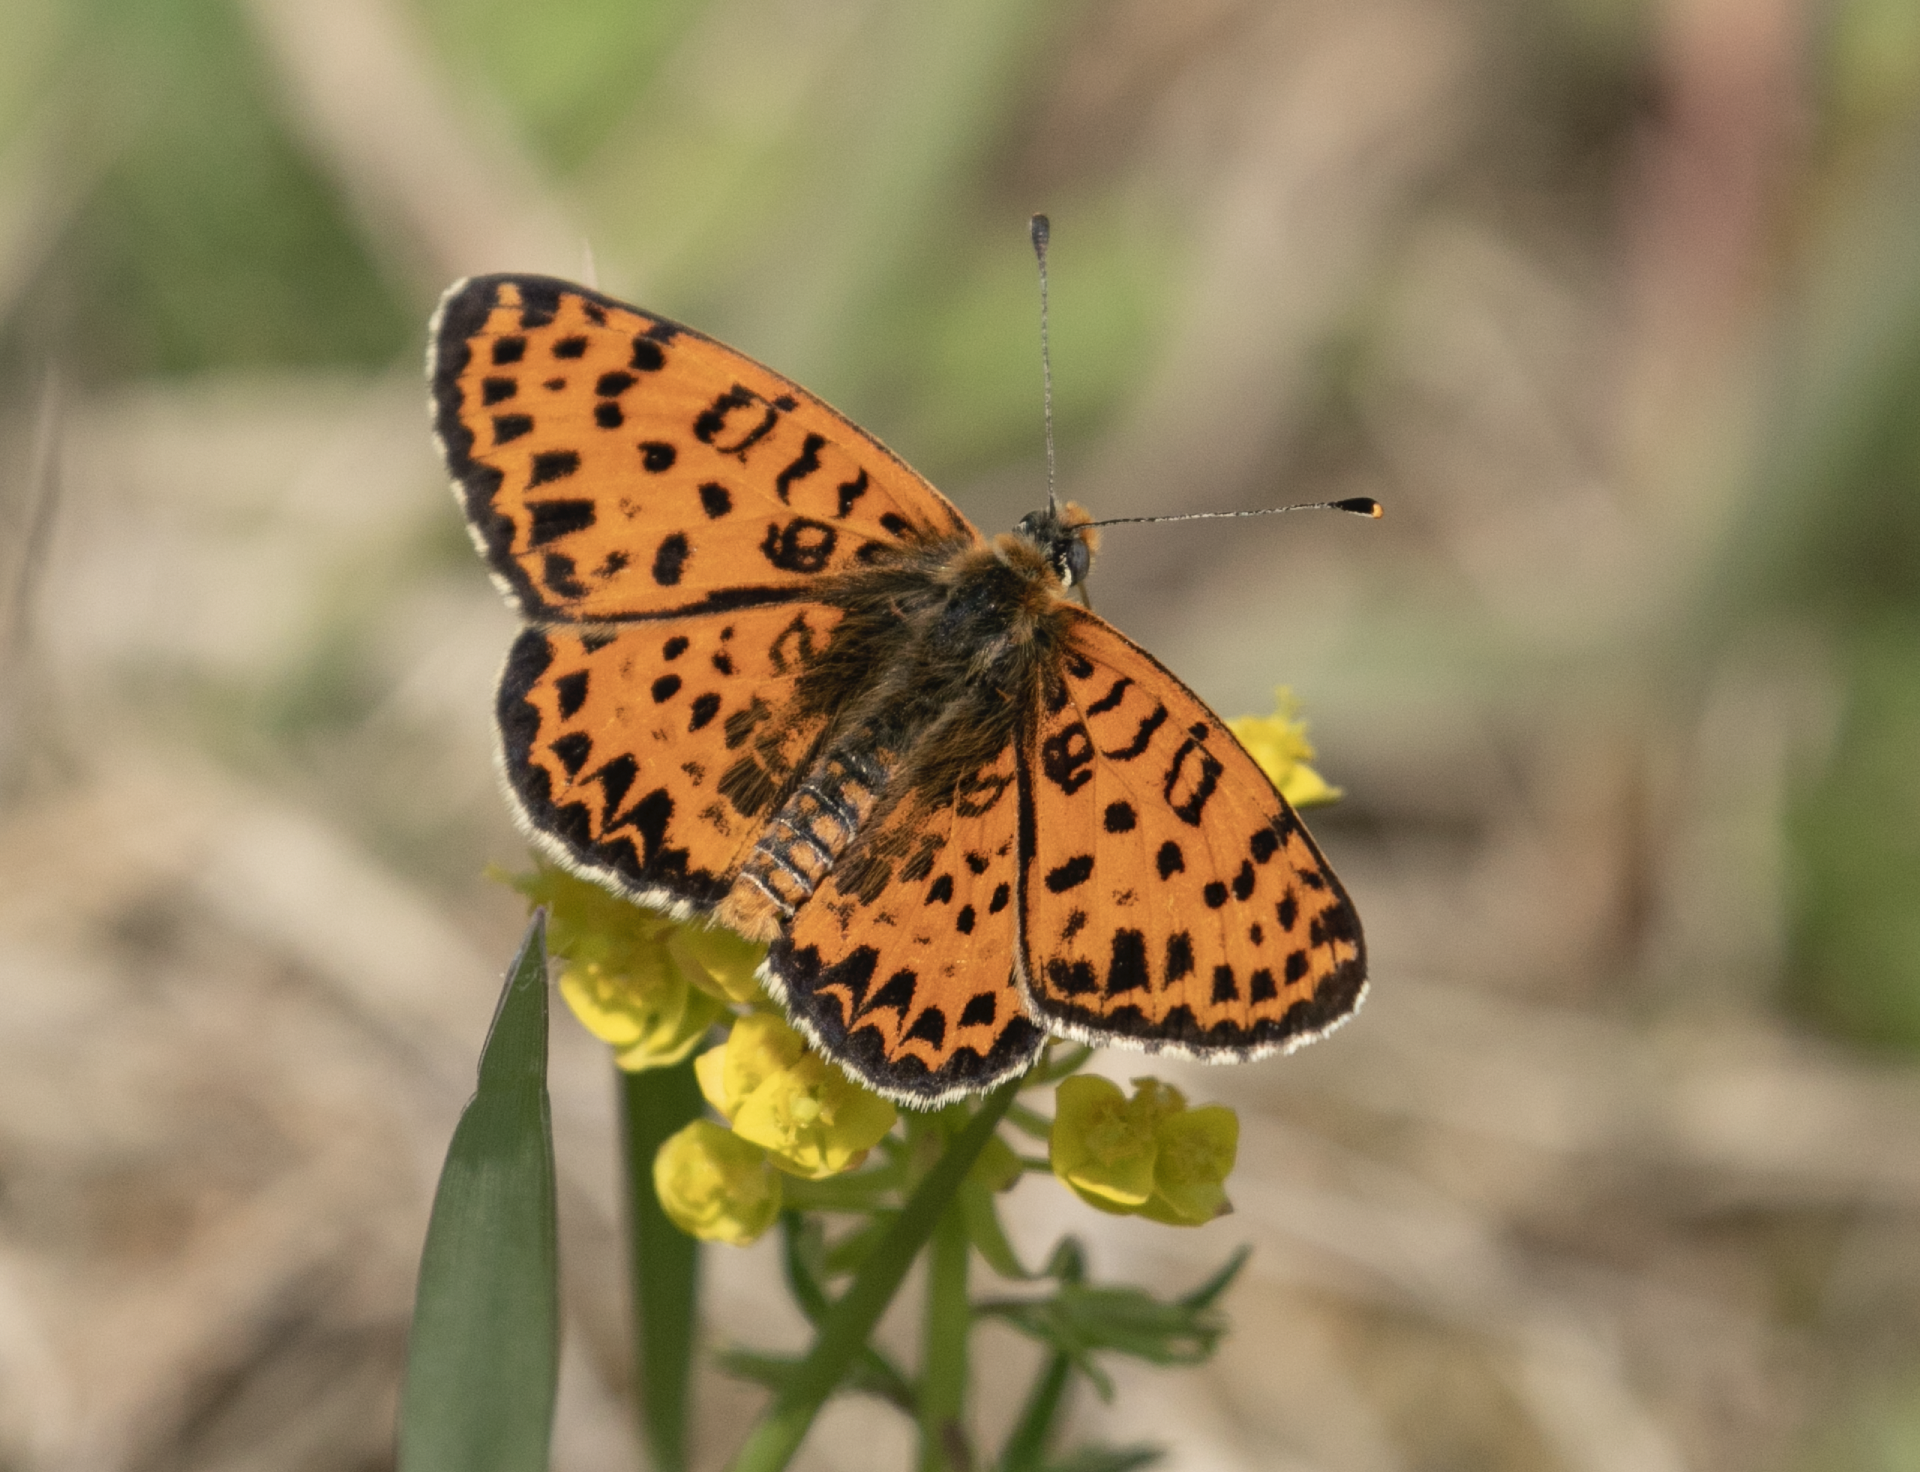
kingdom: Animalia
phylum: Arthropoda
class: Insecta
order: Lepidoptera
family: Nymphalidae
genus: Melitaea
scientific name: Melitaea didyma
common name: Spotted fritillary
